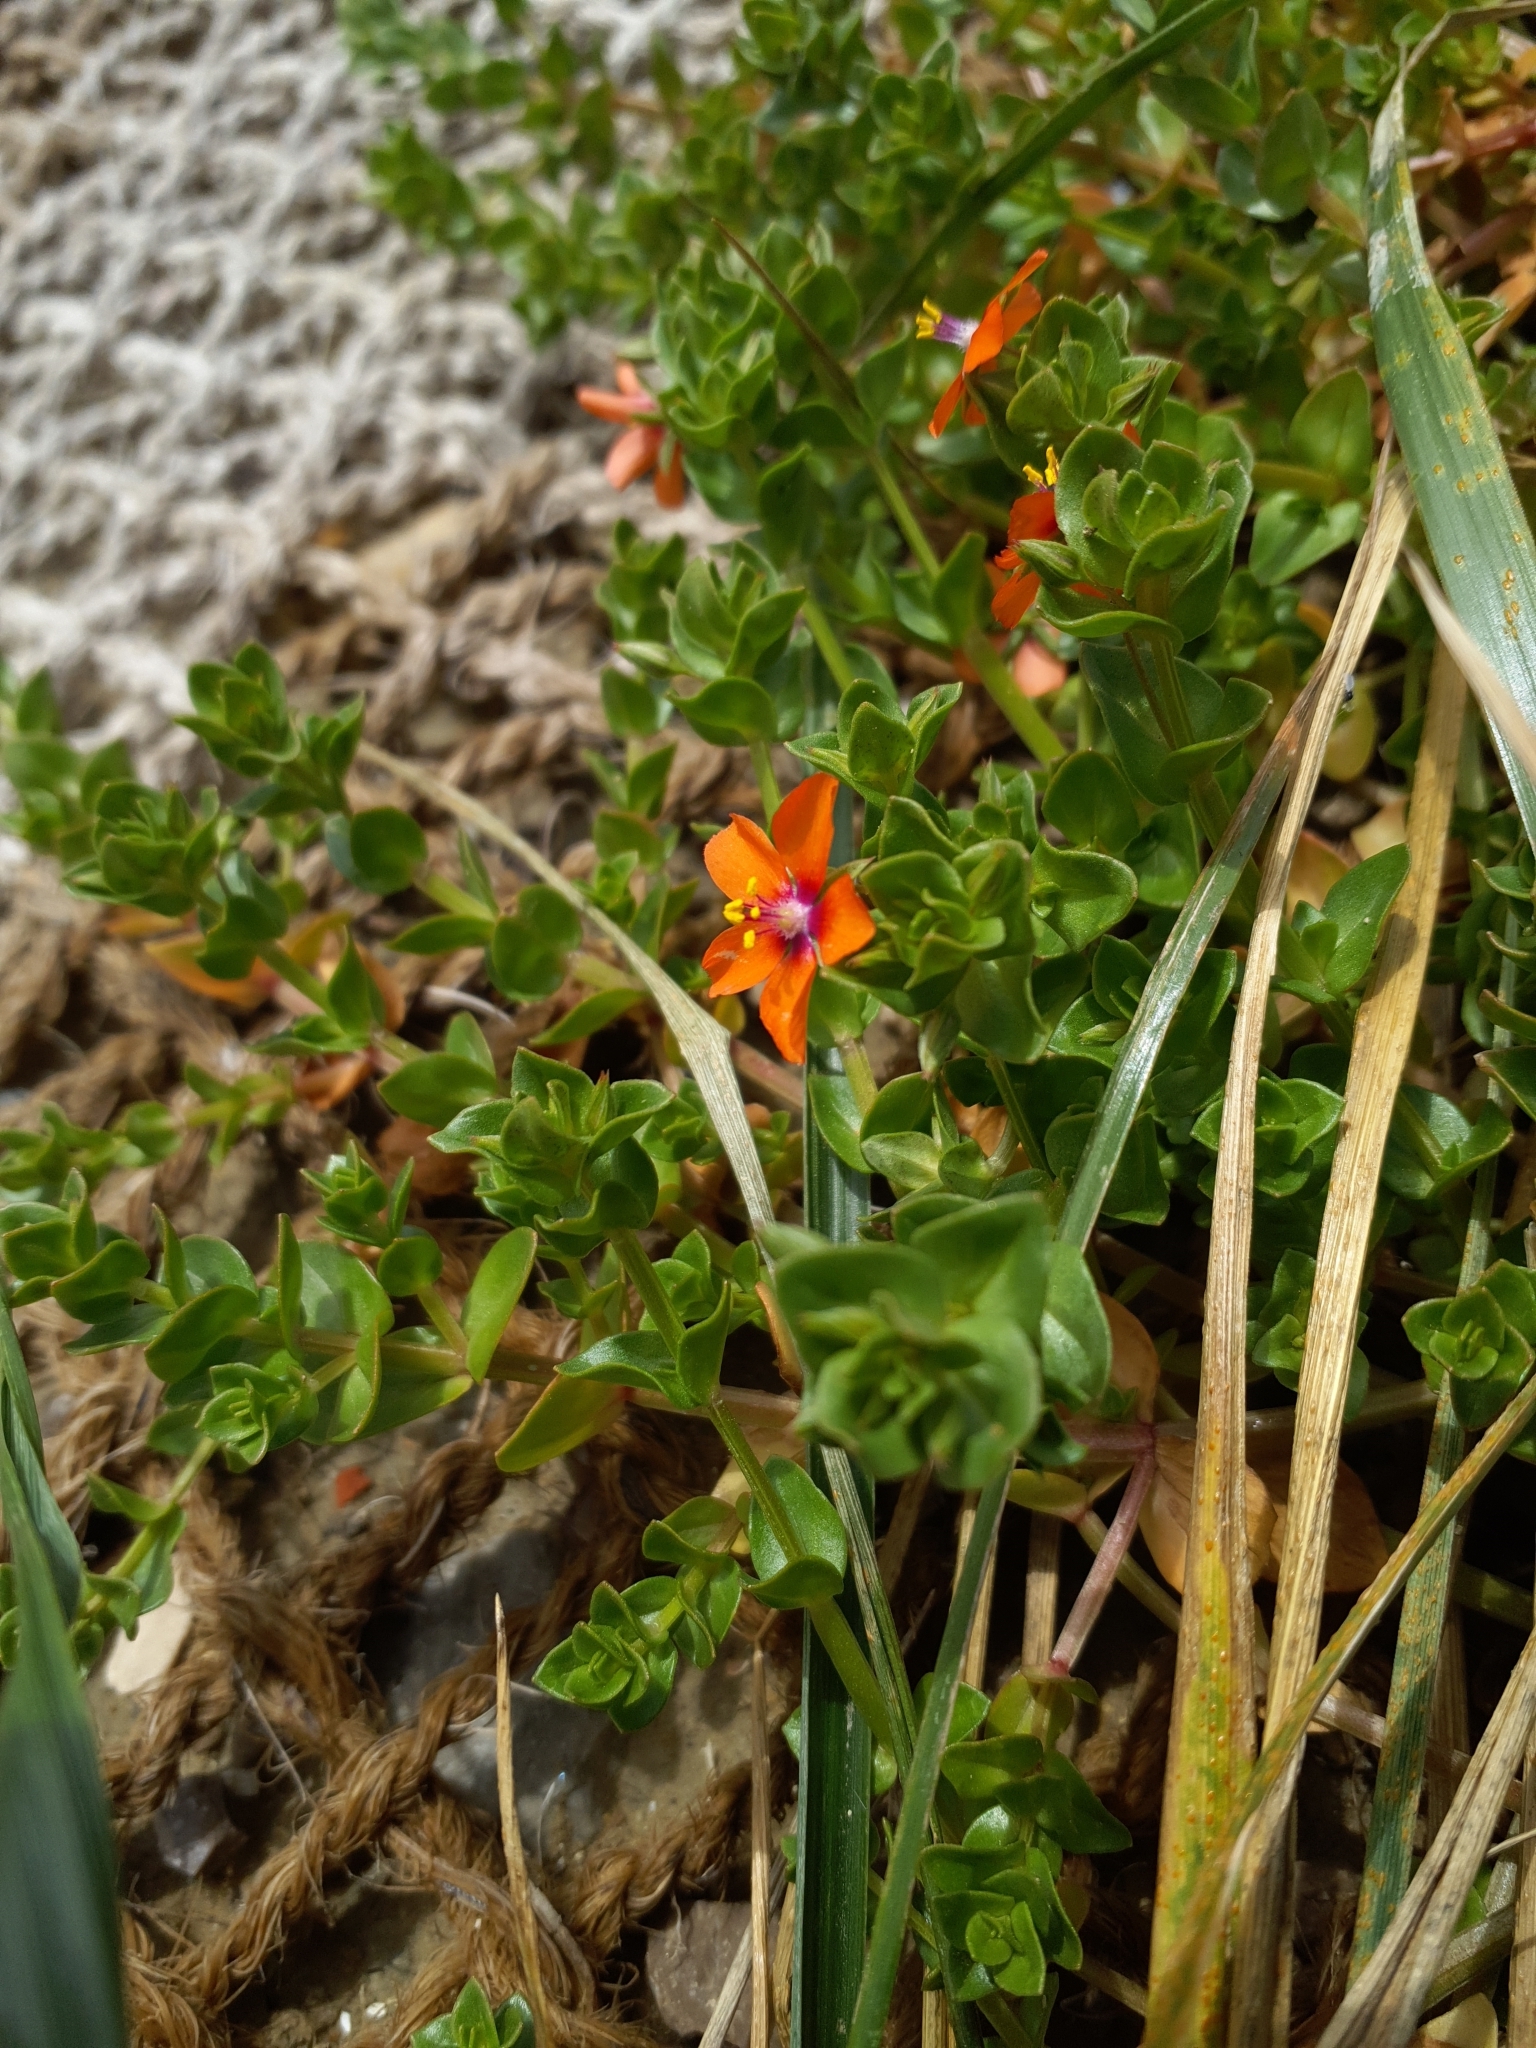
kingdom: Plantae
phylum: Tracheophyta
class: Magnoliopsida
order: Ericales
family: Primulaceae
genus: Lysimachia
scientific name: Lysimachia arvensis
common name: Scarlet pimpernel
